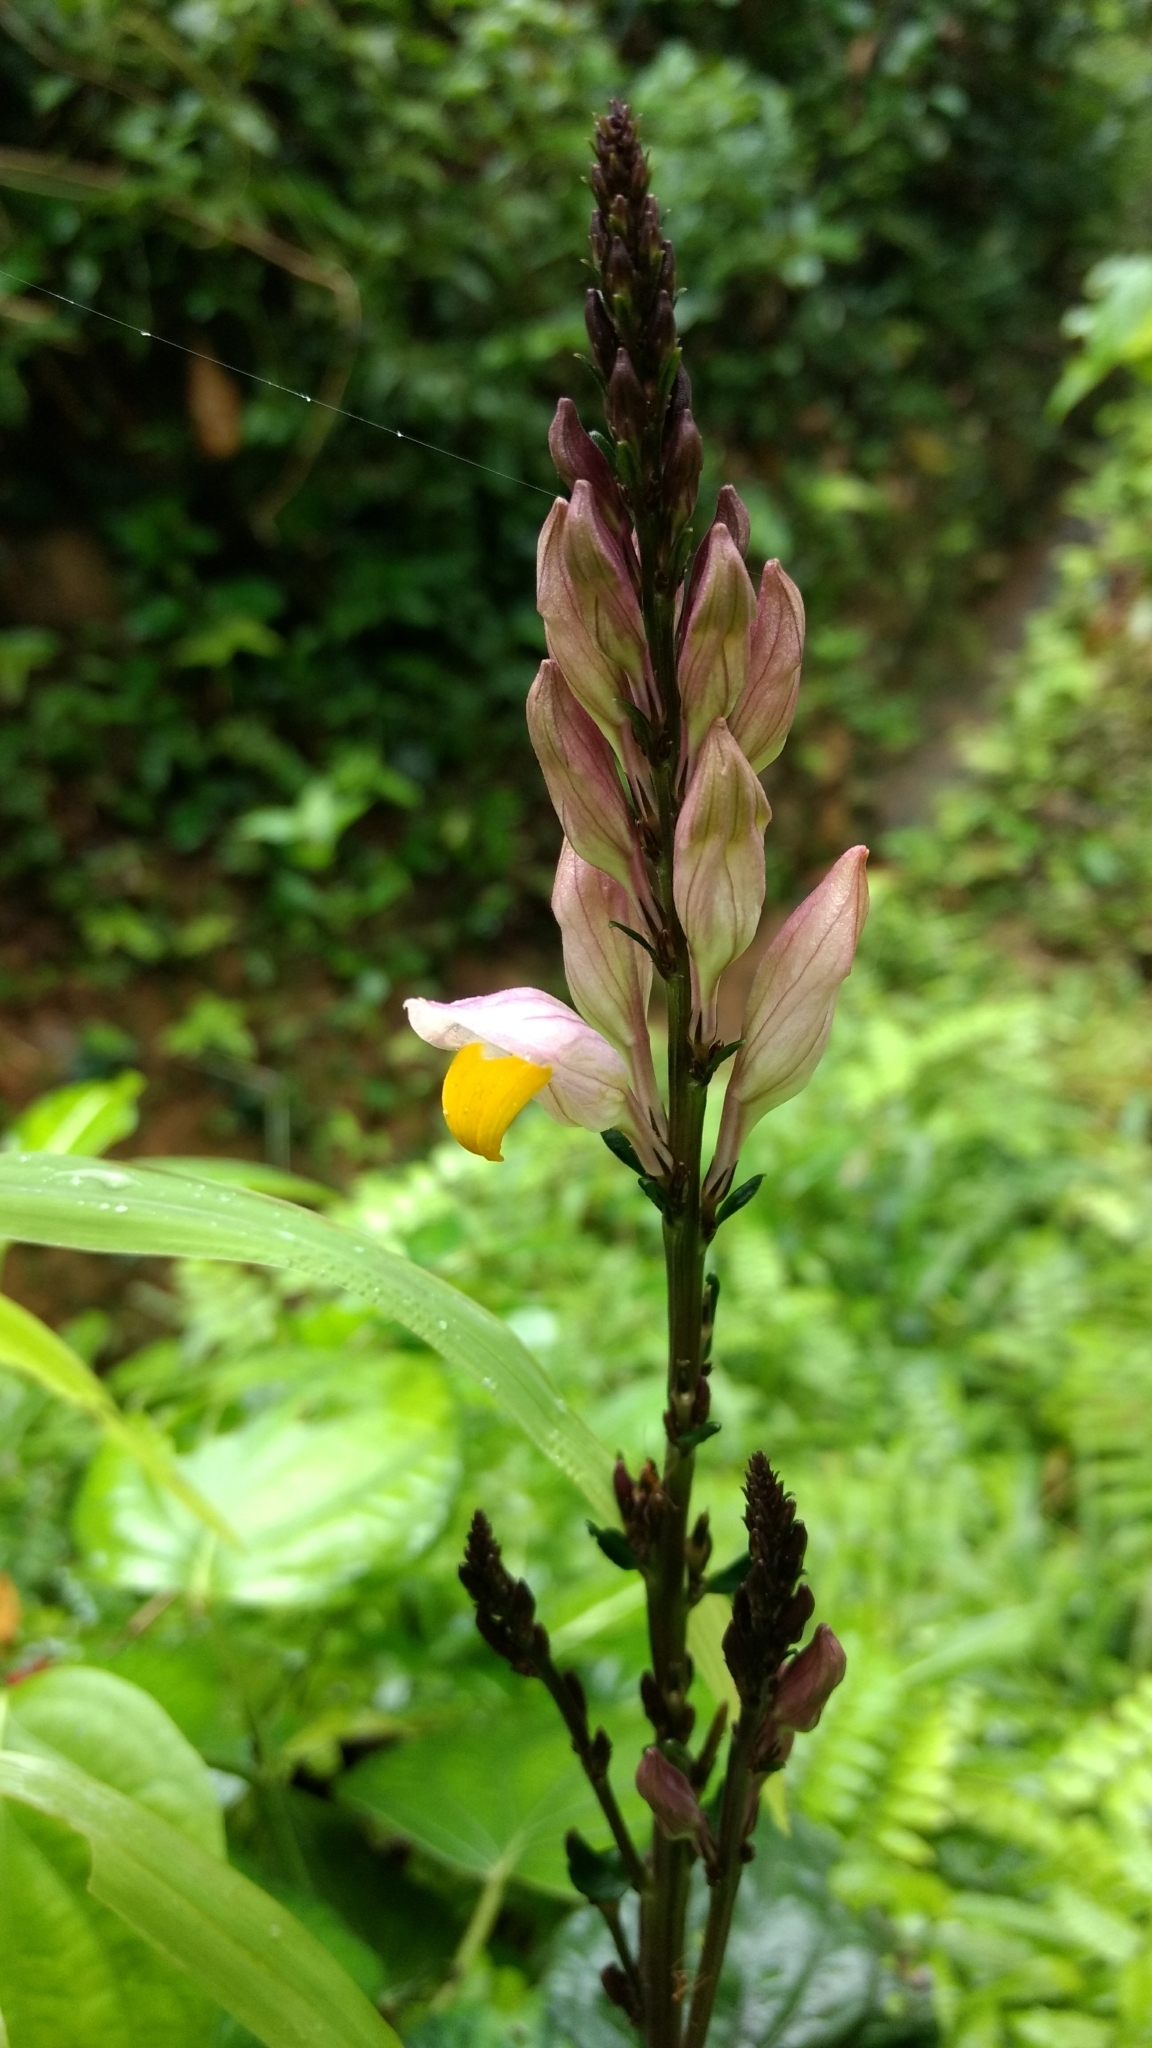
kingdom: Plantae
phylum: Tracheophyta
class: Magnoliopsida
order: Lamiales
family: Acanthaceae
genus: Gymnostachyum
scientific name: Gymnostachyum febrifugum
